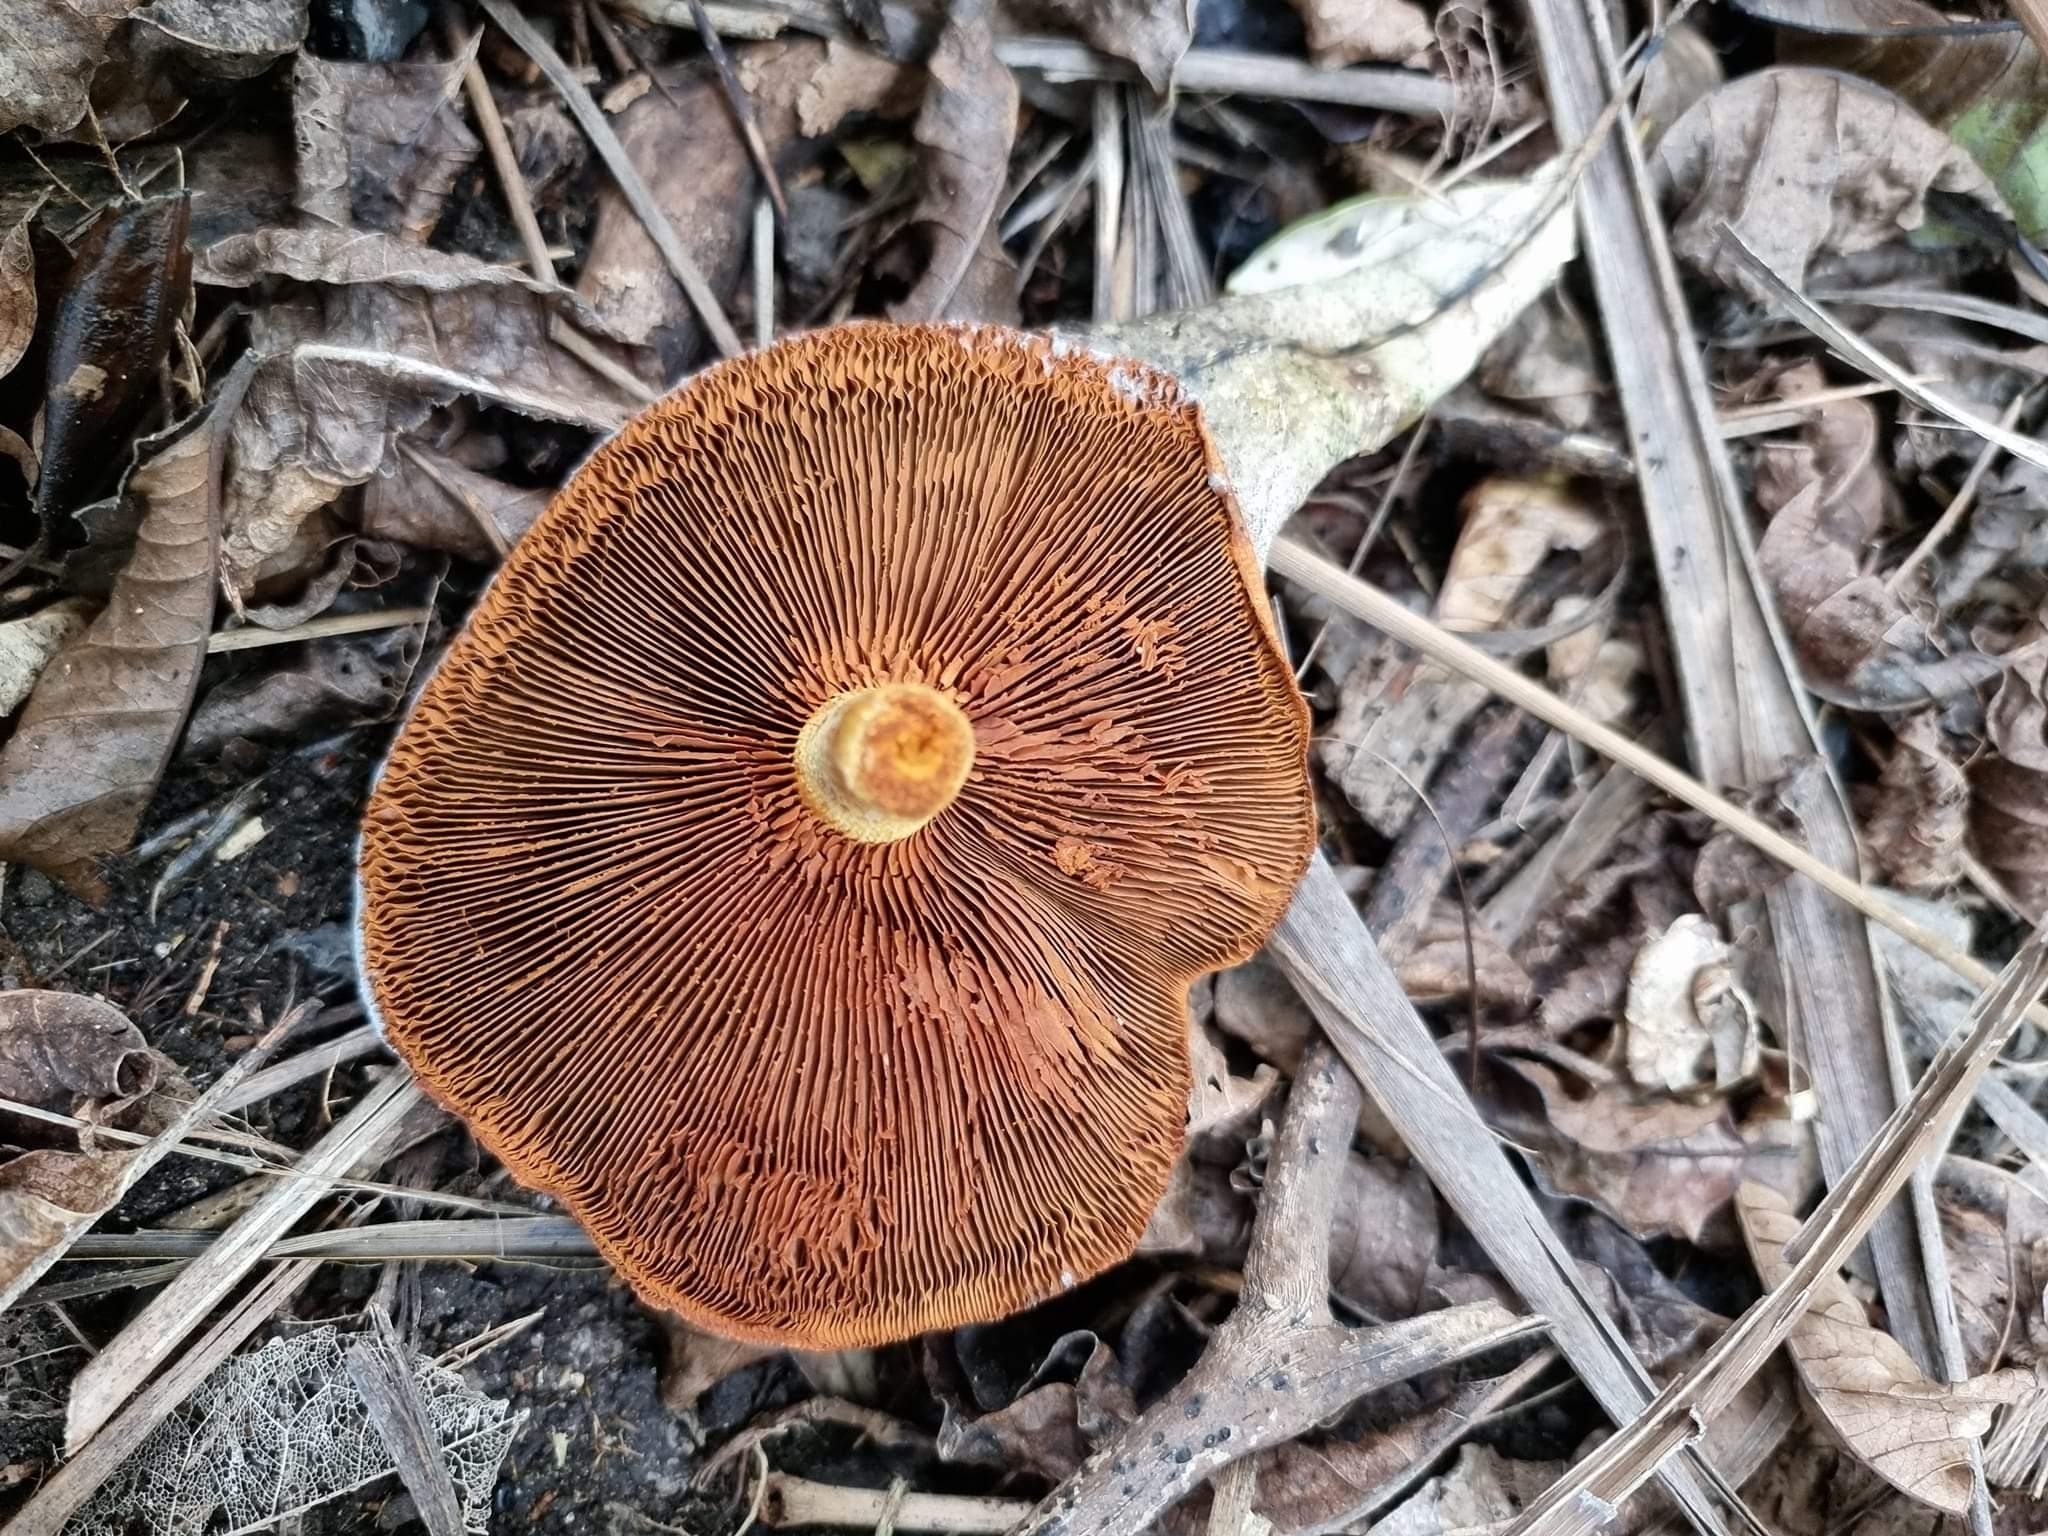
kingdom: Fungi
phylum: Basidiomycota
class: Agaricomycetes
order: Agaricales
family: Hymenogastraceae
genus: Gymnopilus
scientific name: Gymnopilus junonius
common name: Spectacular rustgill
